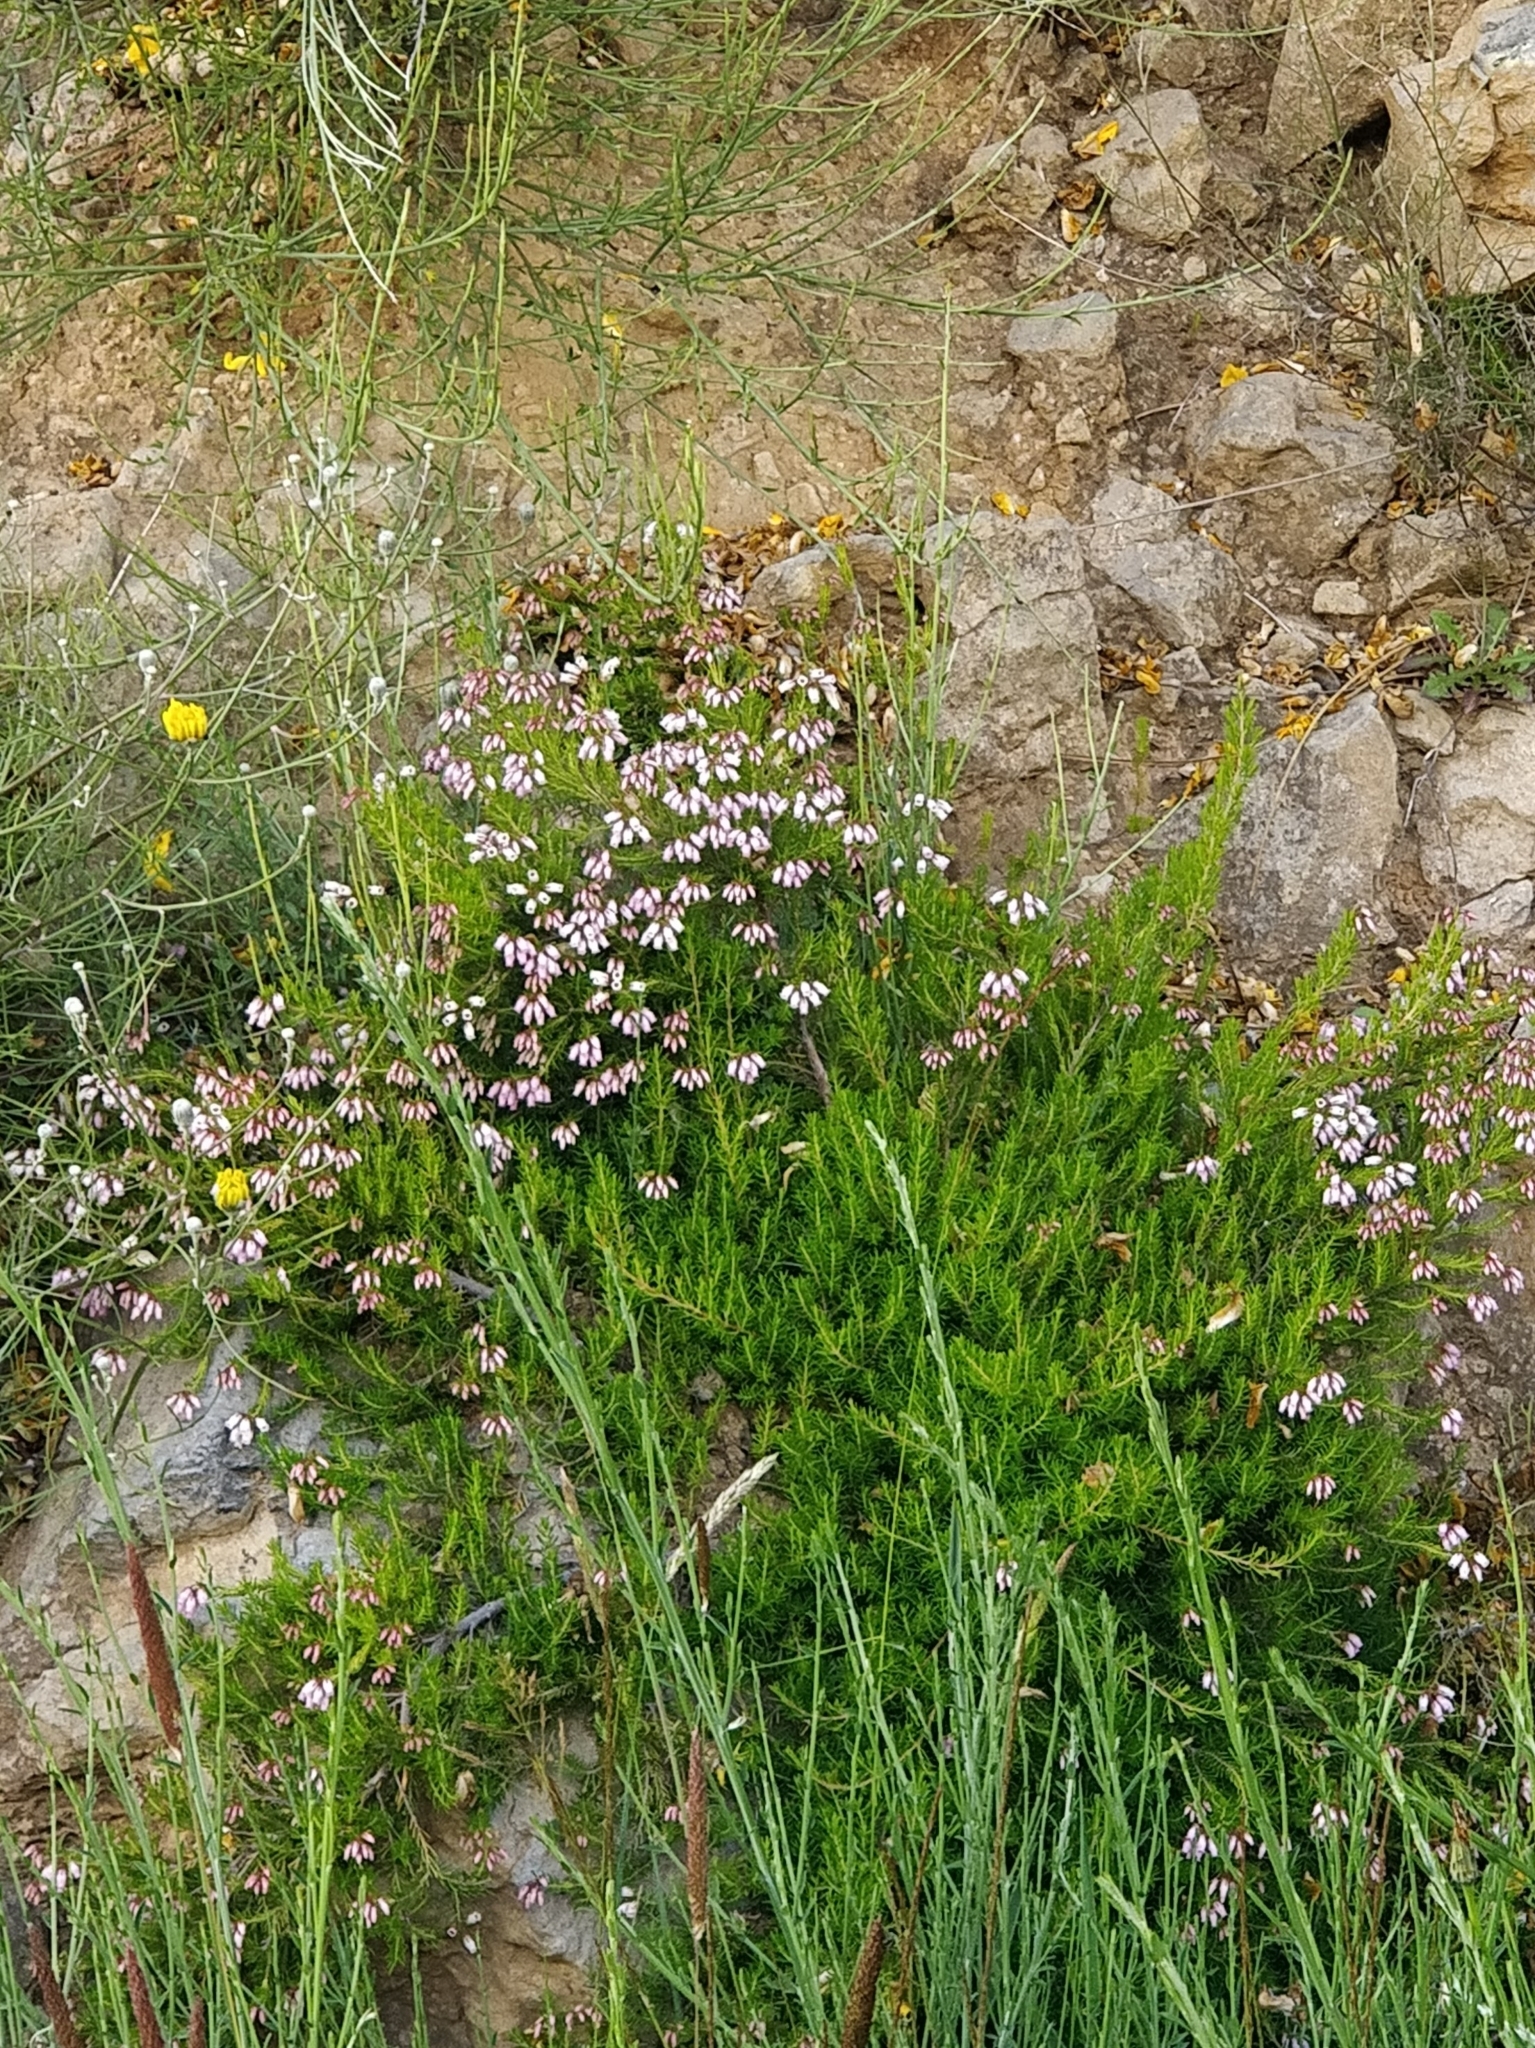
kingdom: Plantae
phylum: Tracheophyta
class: Magnoliopsida
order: Ericales
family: Ericaceae
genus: Erica
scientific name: Erica maderensis
